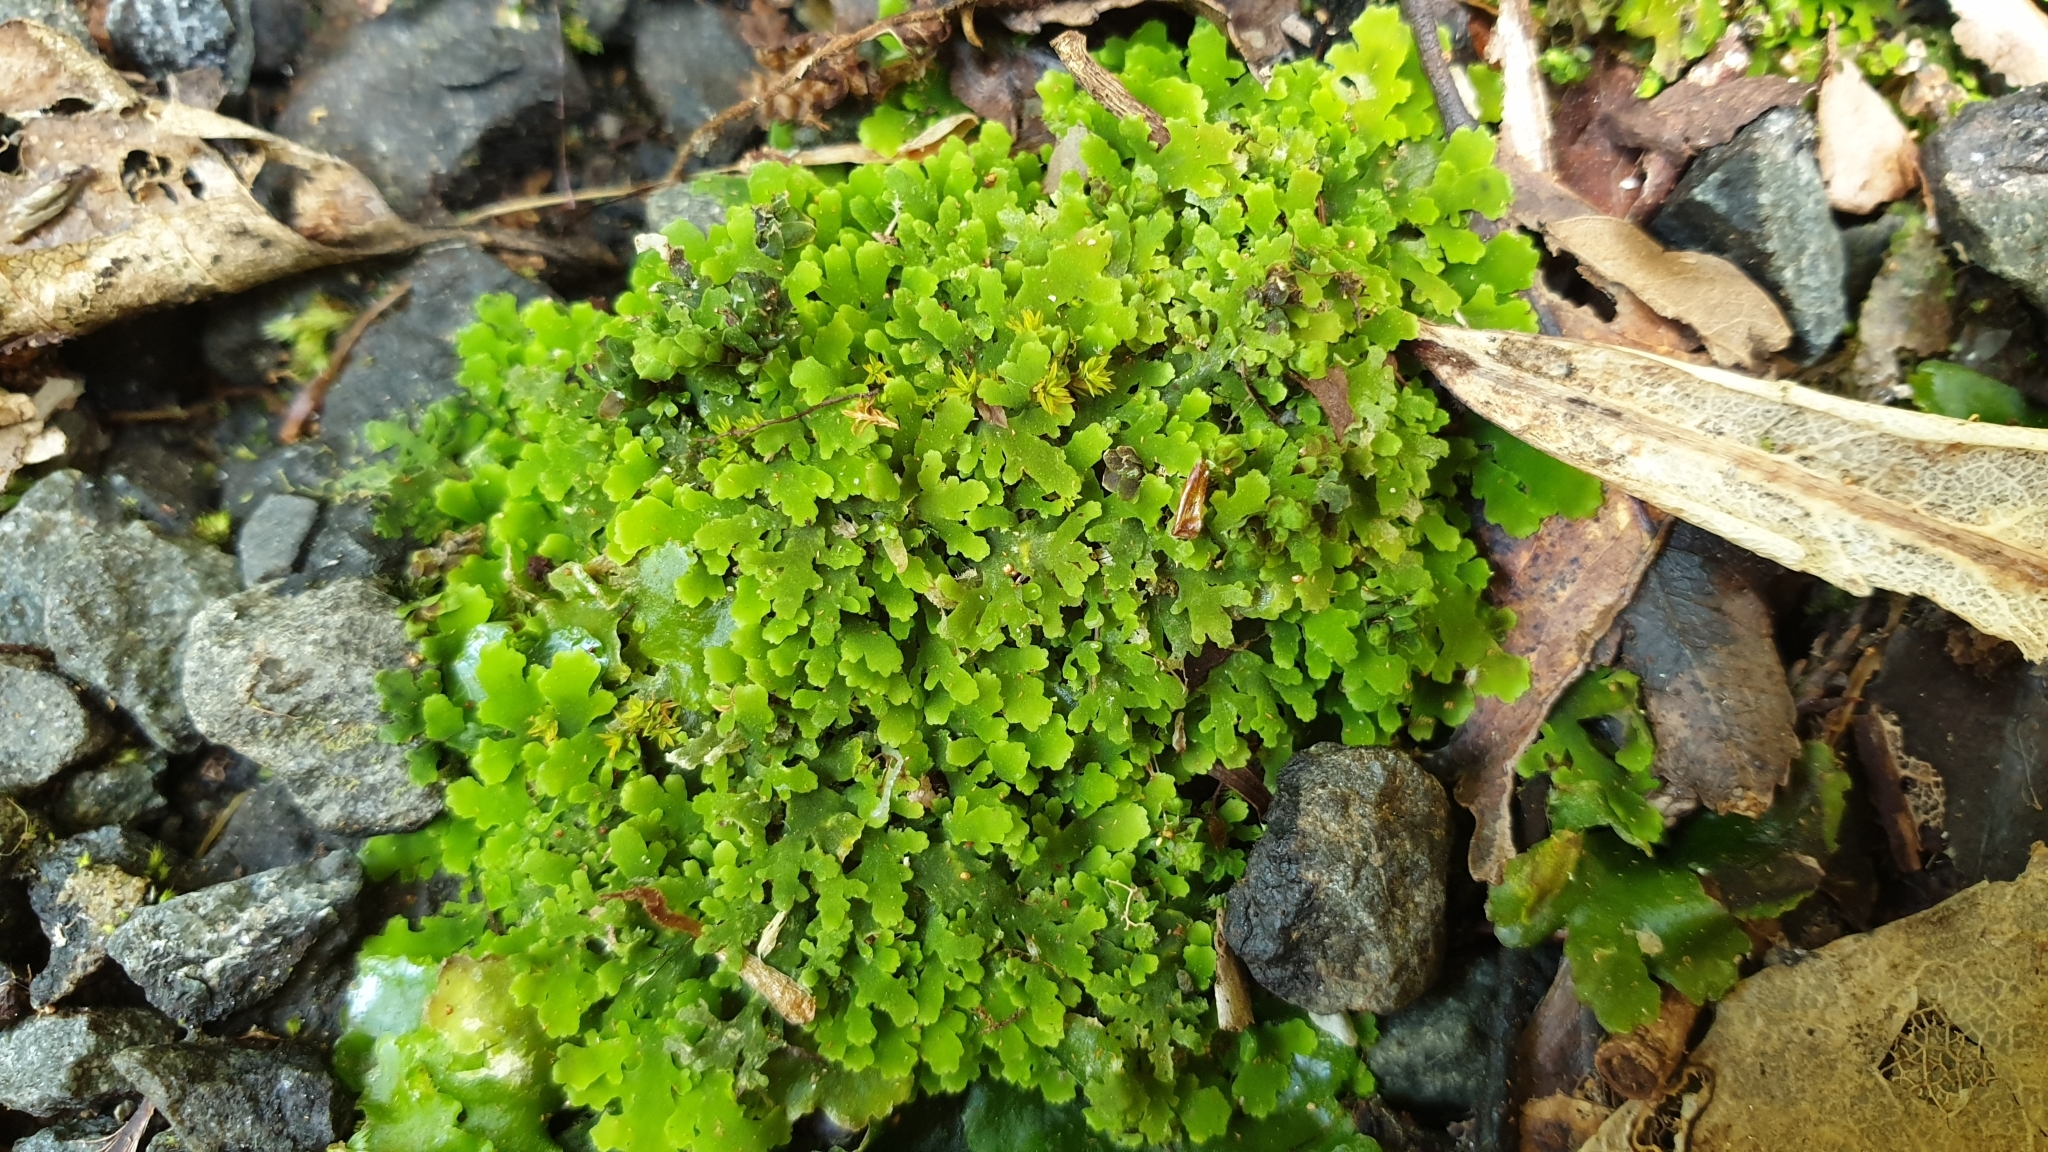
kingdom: Plantae
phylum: Marchantiophyta
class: Jungermanniopsida
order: Metzgeriales
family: Aneuraceae
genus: Riccardia
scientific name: Riccardia colensoi
